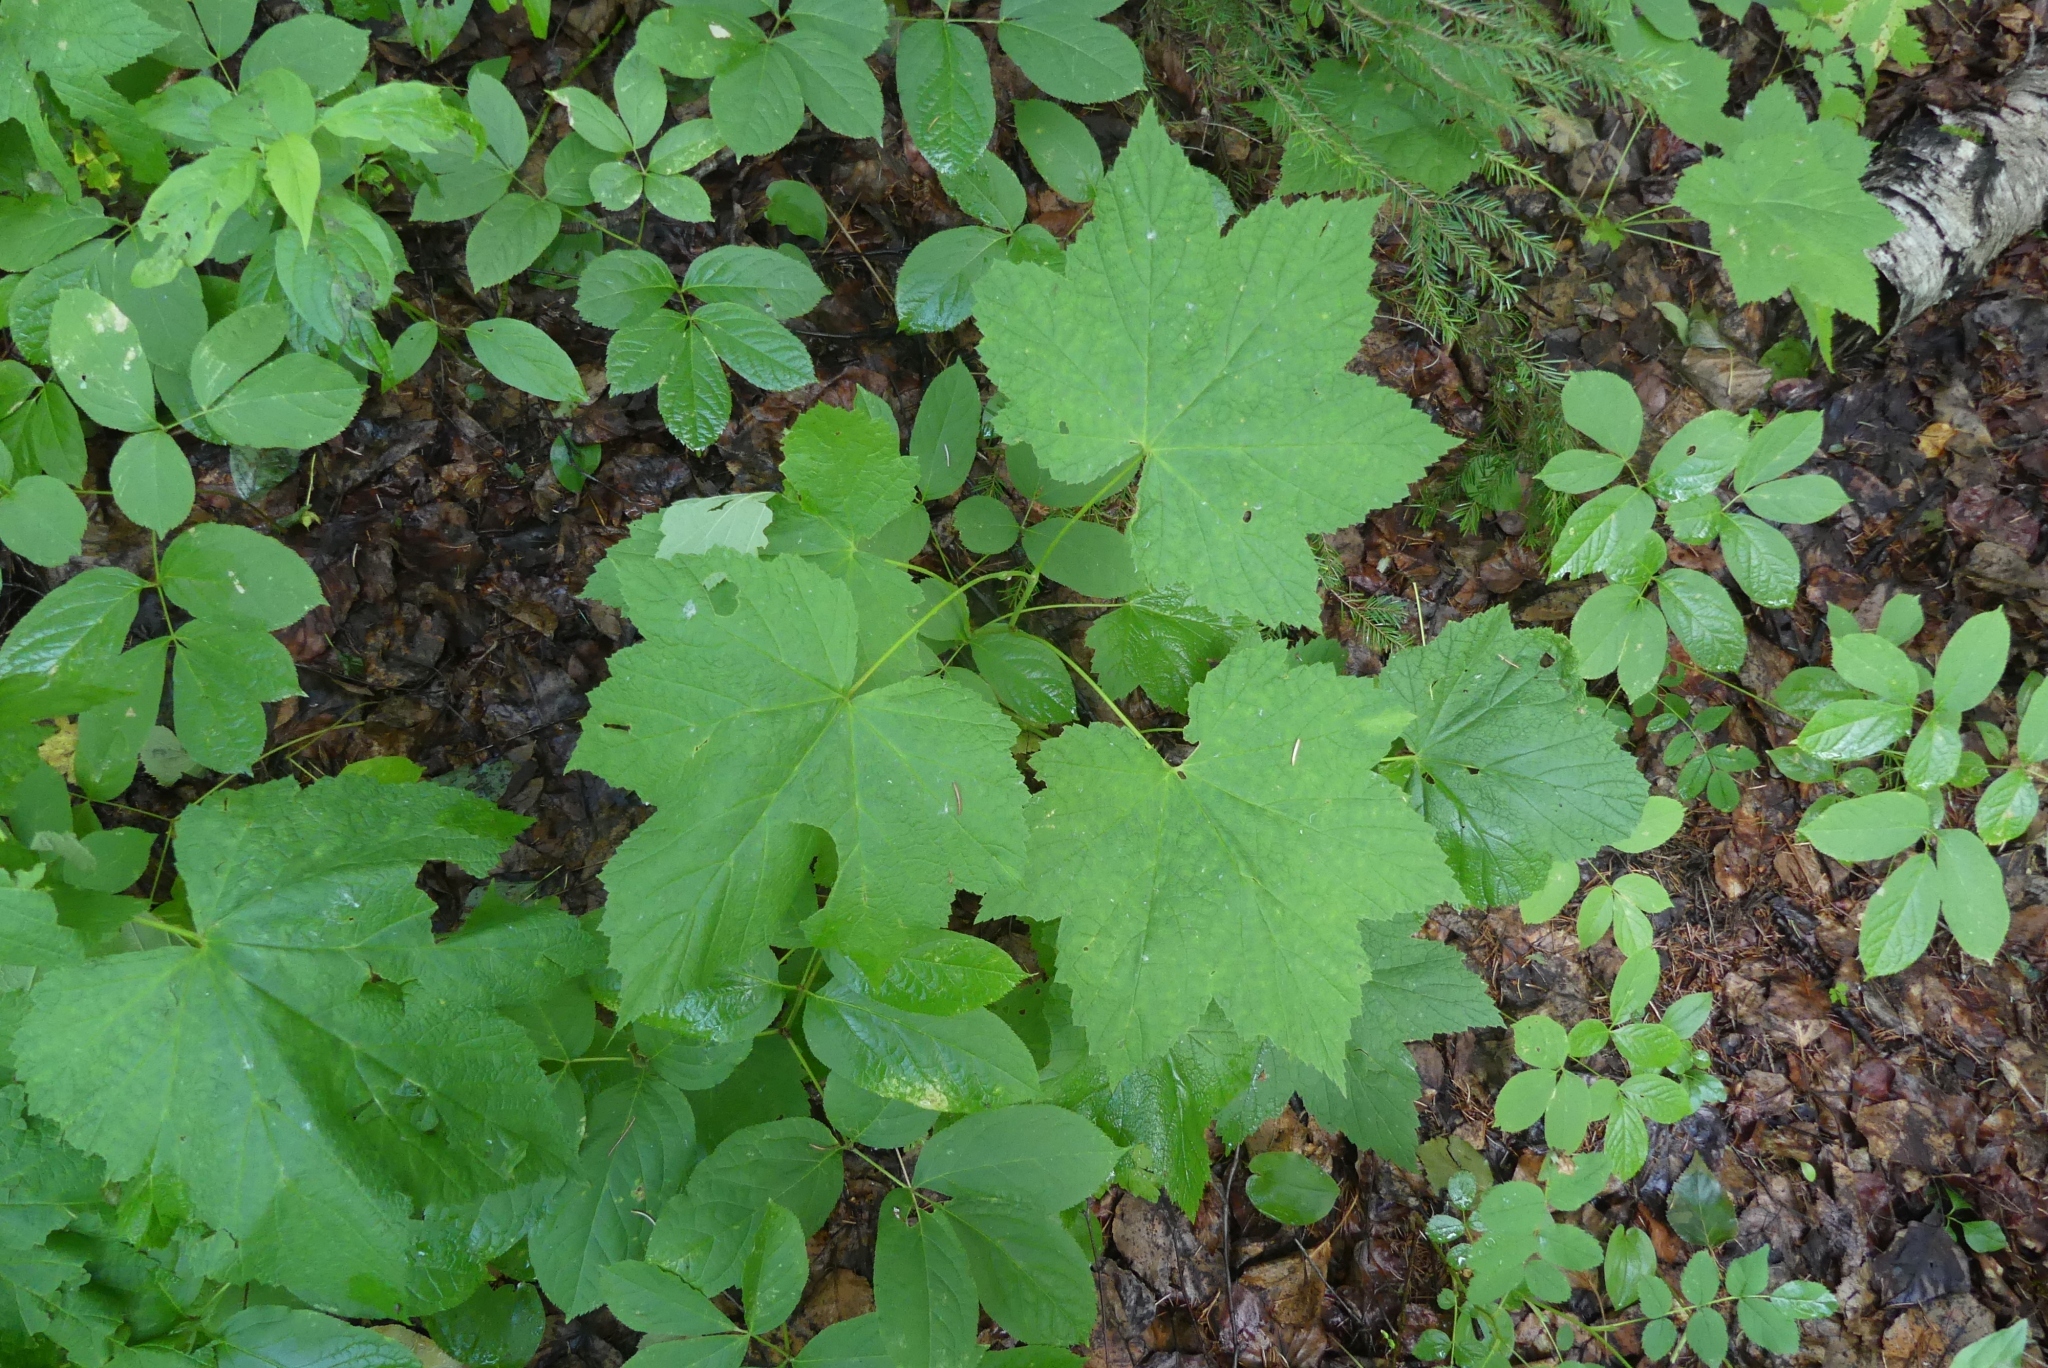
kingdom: Plantae
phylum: Tracheophyta
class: Magnoliopsida
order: Rosales
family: Rosaceae
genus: Rubus
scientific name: Rubus parviflorus
